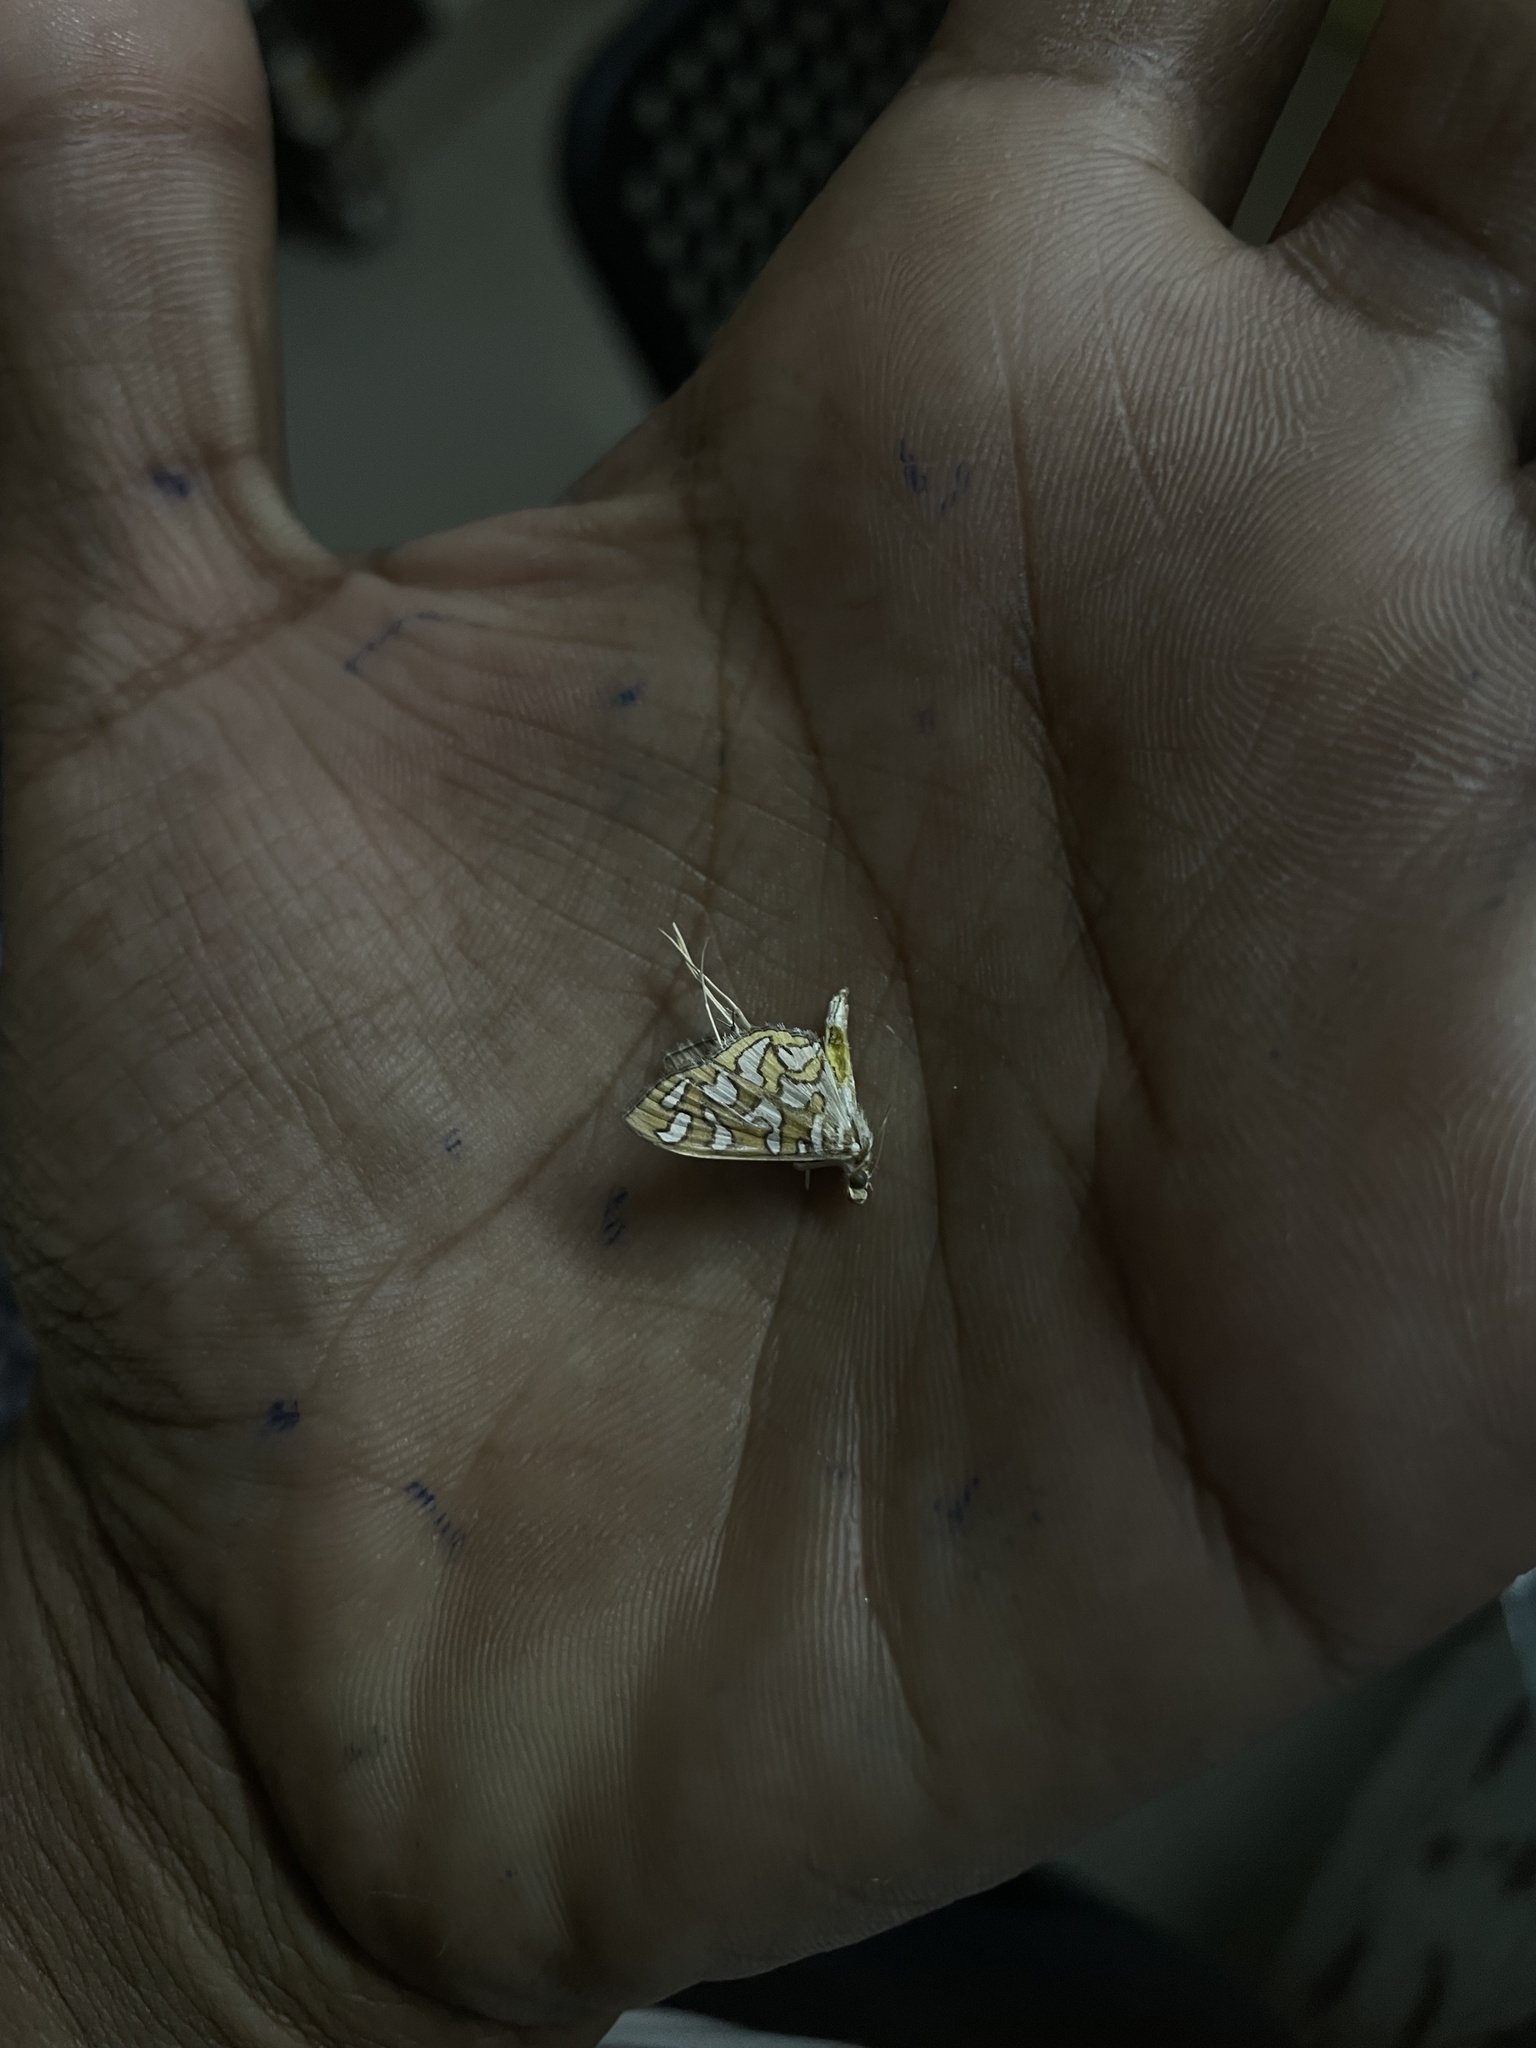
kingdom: Animalia
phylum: Arthropoda
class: Insecta
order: Lepidoptera
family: Crambidae
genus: Nausinoe
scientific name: Nausinoe perspectata
